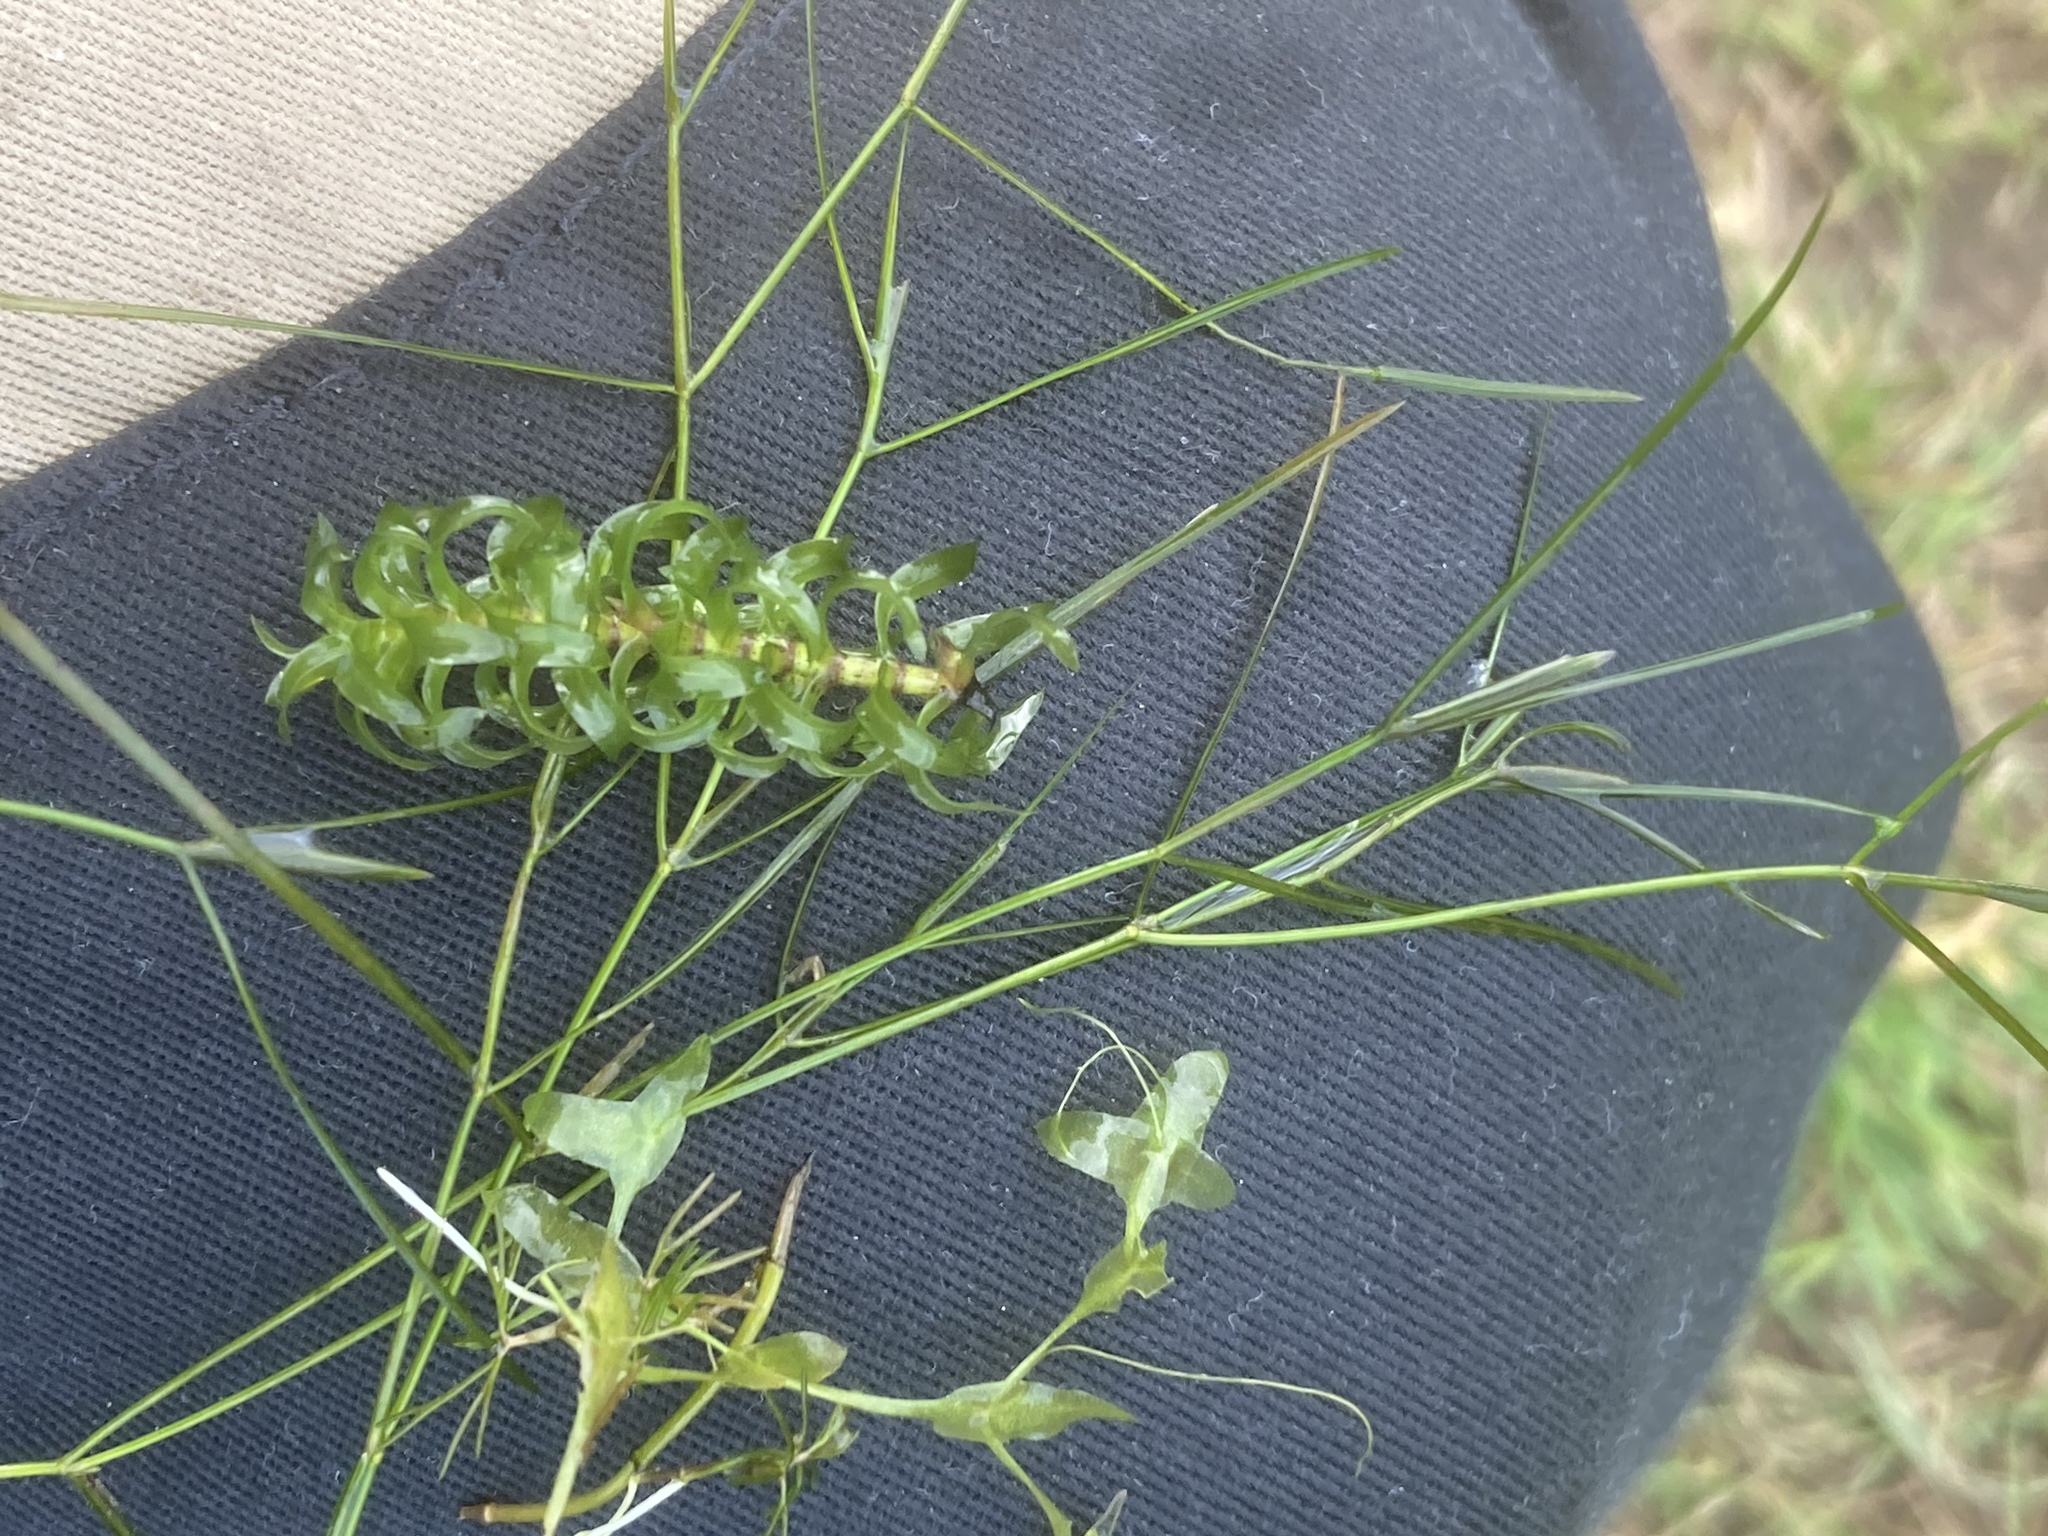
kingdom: Plantae
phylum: Tracheophyta
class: Liliopsida
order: Alismatales
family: Potamogetonaceae
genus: Potamogeton
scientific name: Potamogeton trichoides
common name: Hairlike pondweed
